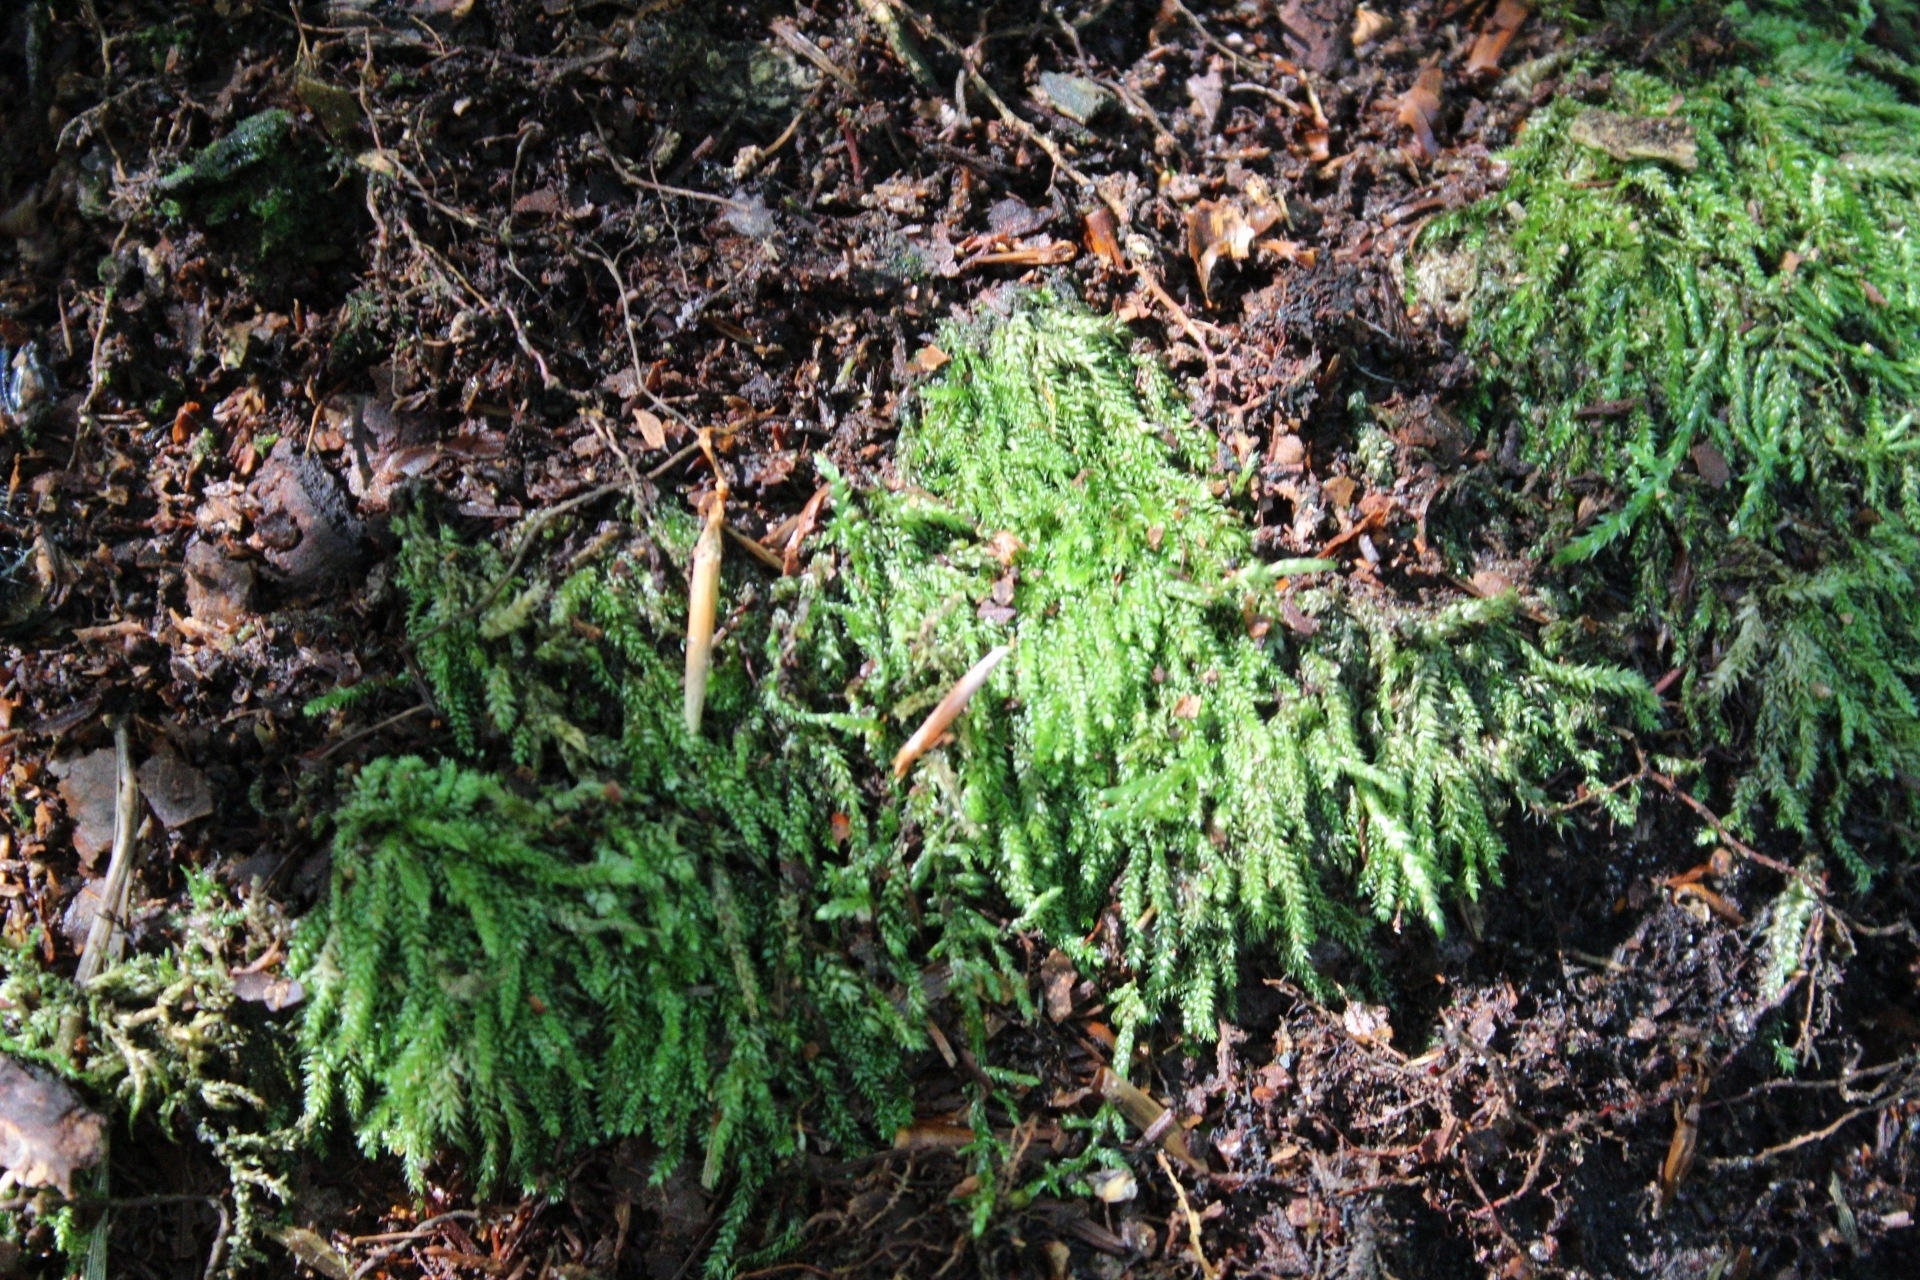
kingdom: Plantae
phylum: Bryophyta
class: Bryopsida
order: Hypnales
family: Plagiotheciaceae
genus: Plagiothecium
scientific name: Plagiothecium curvifolium
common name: Curved silk-moss
